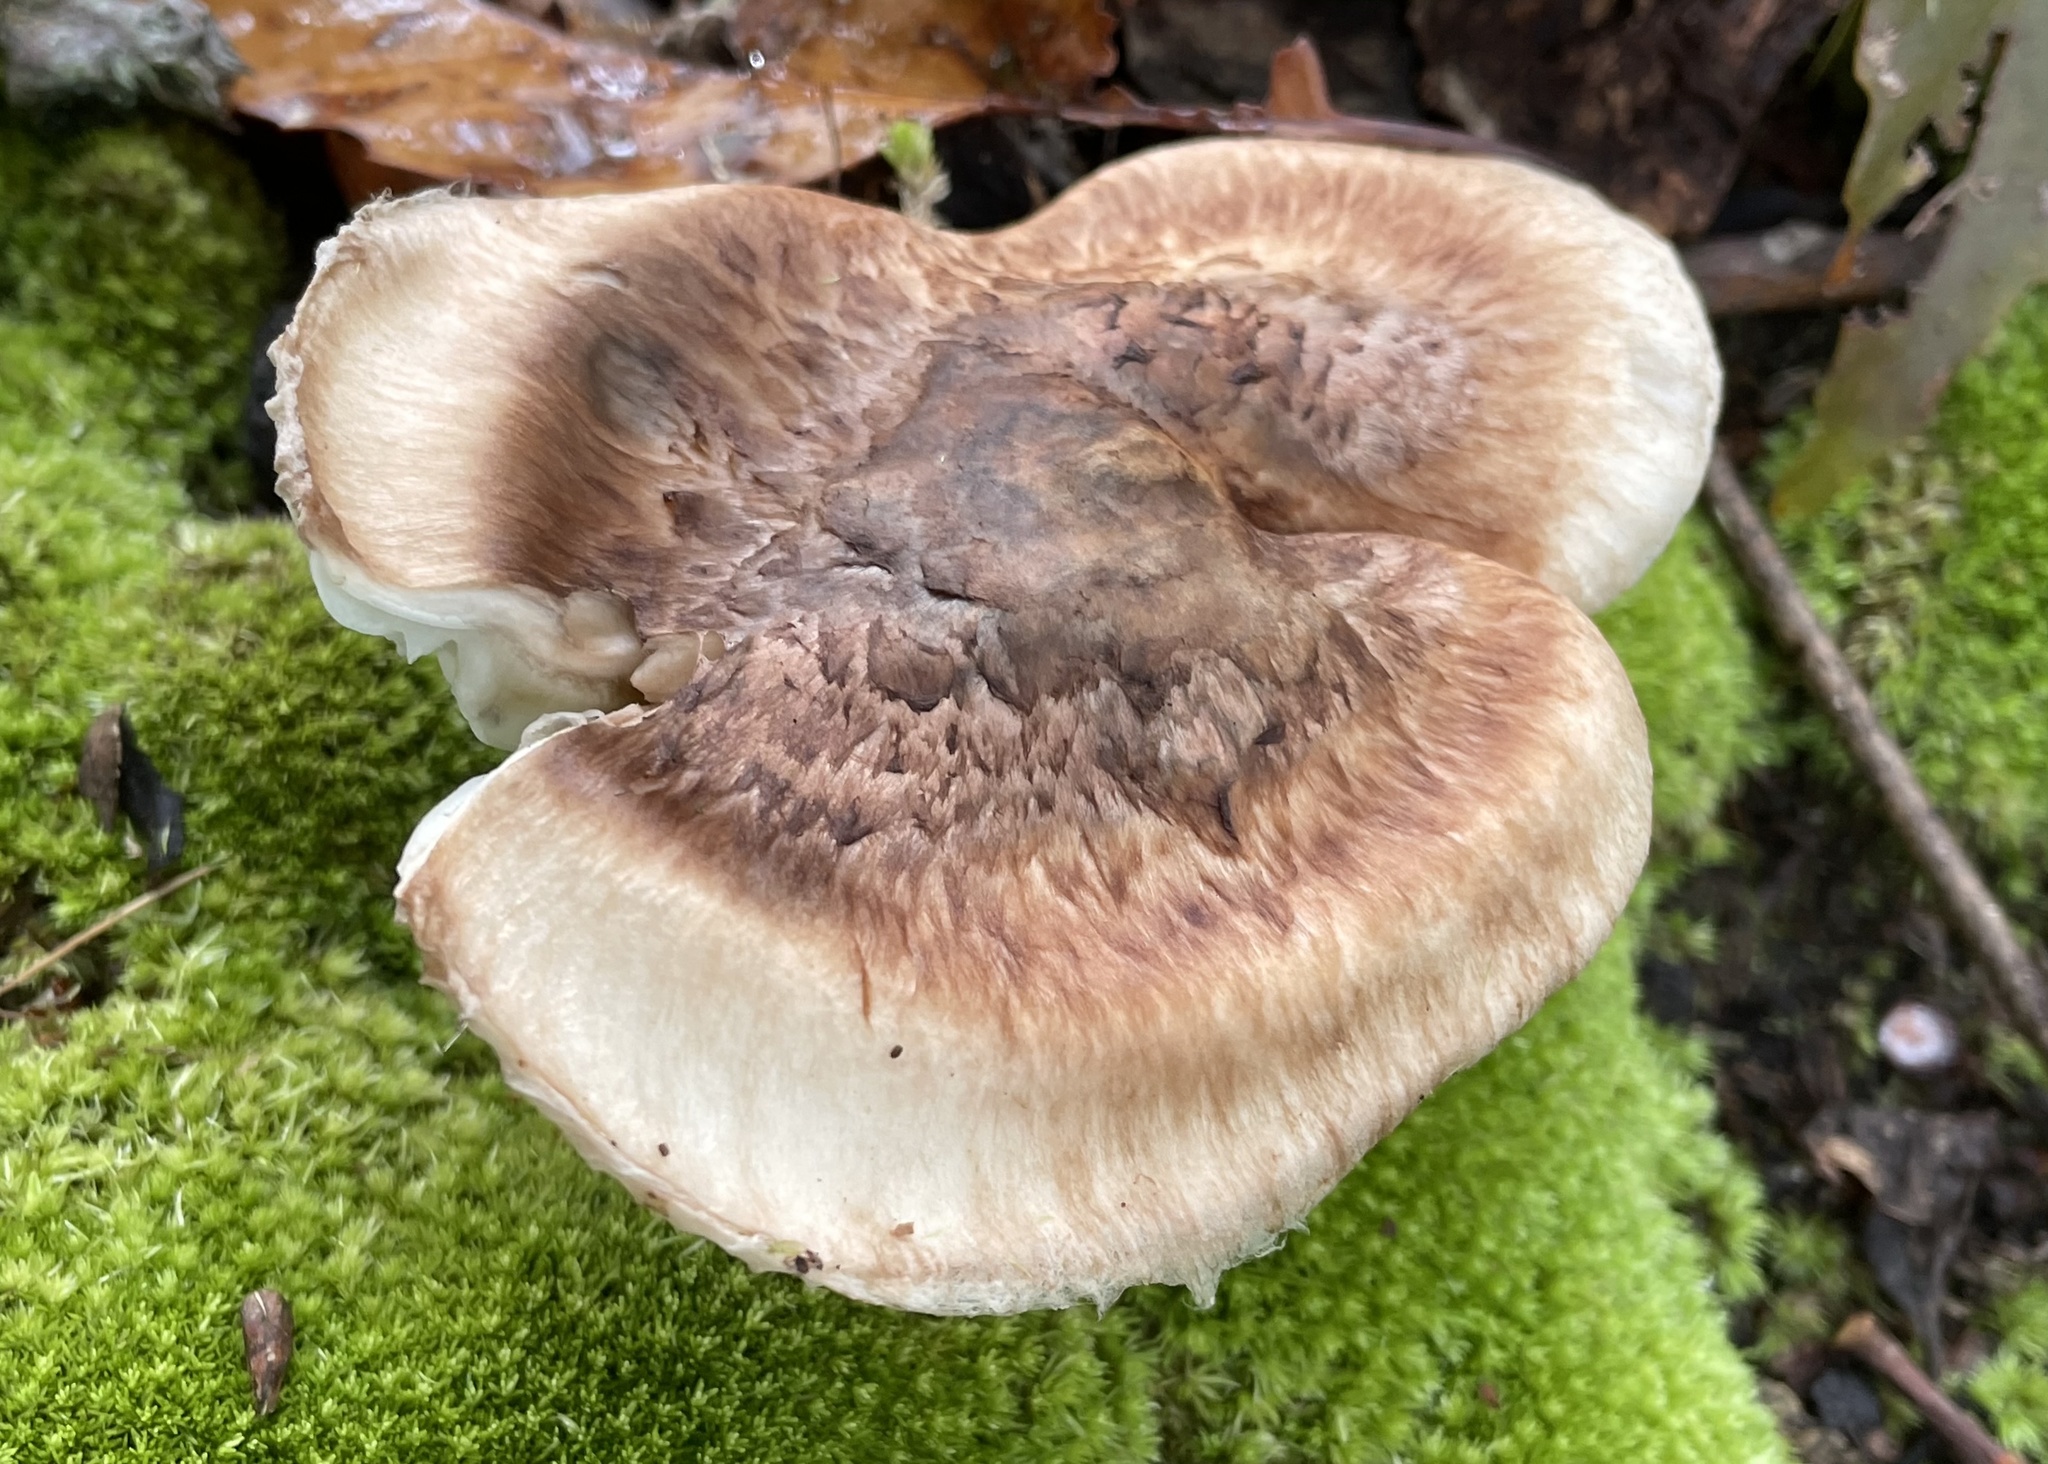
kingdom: Fungi
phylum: Basidiomycota
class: Agaricomycetes
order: Agaricales
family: Tricholomataceae
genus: Tricholoma
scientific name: Tricholoma glaucescens
